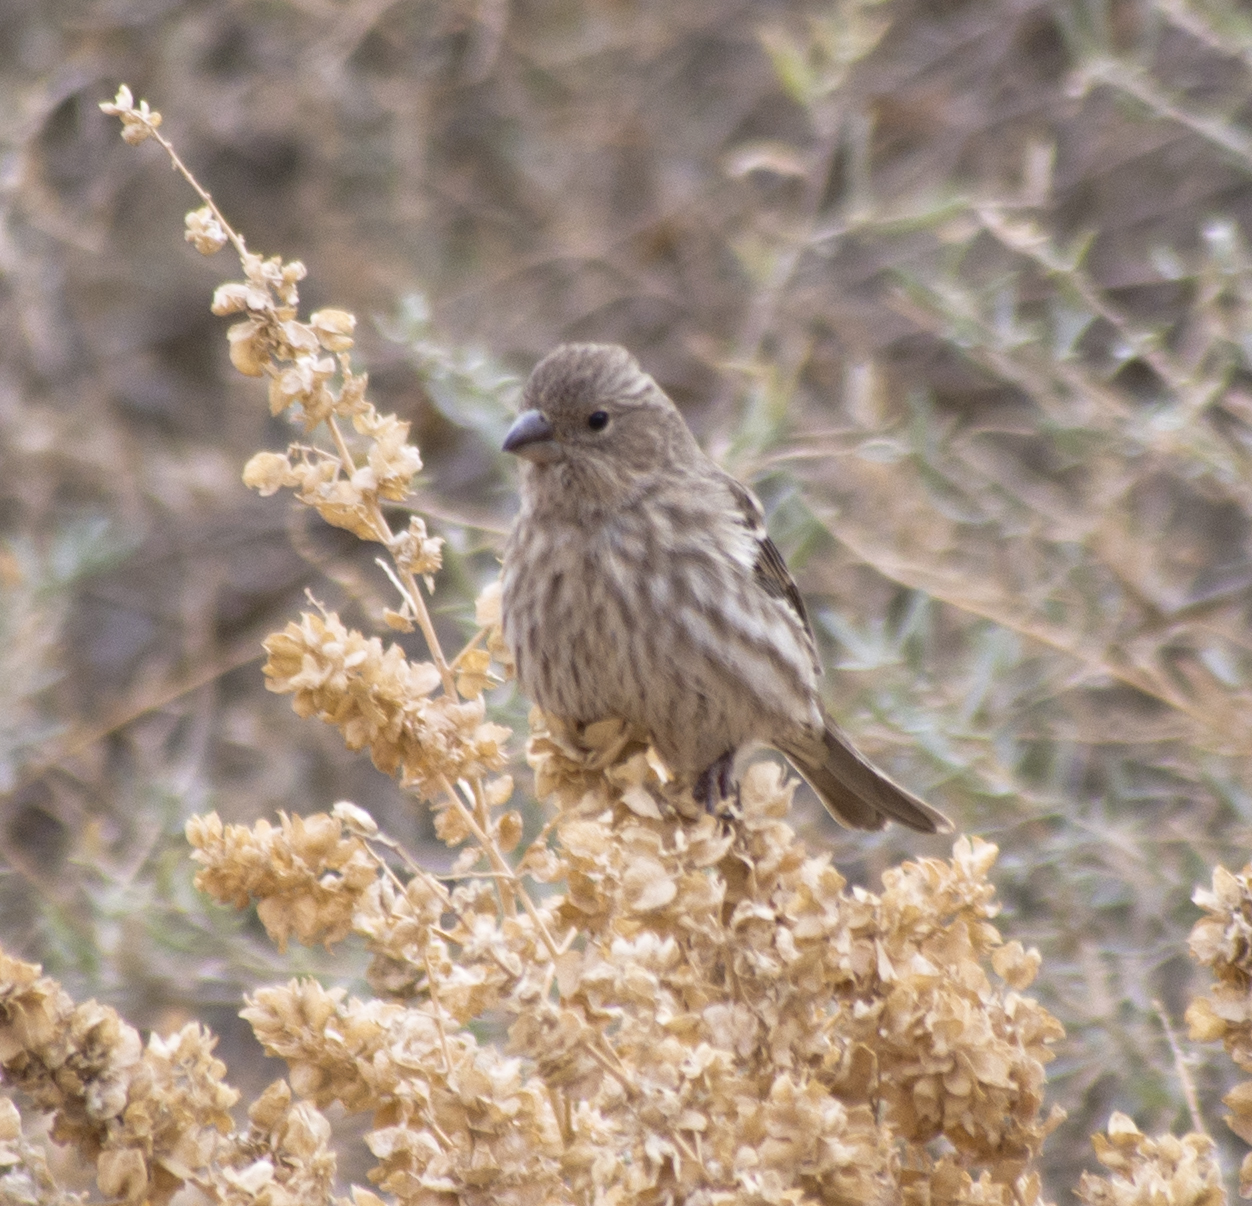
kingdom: Animalia
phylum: Chordata
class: Aves
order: Passeriformes
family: Fringillidae
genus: Haemorhous
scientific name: Haemorhous mexicanus
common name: House finch
